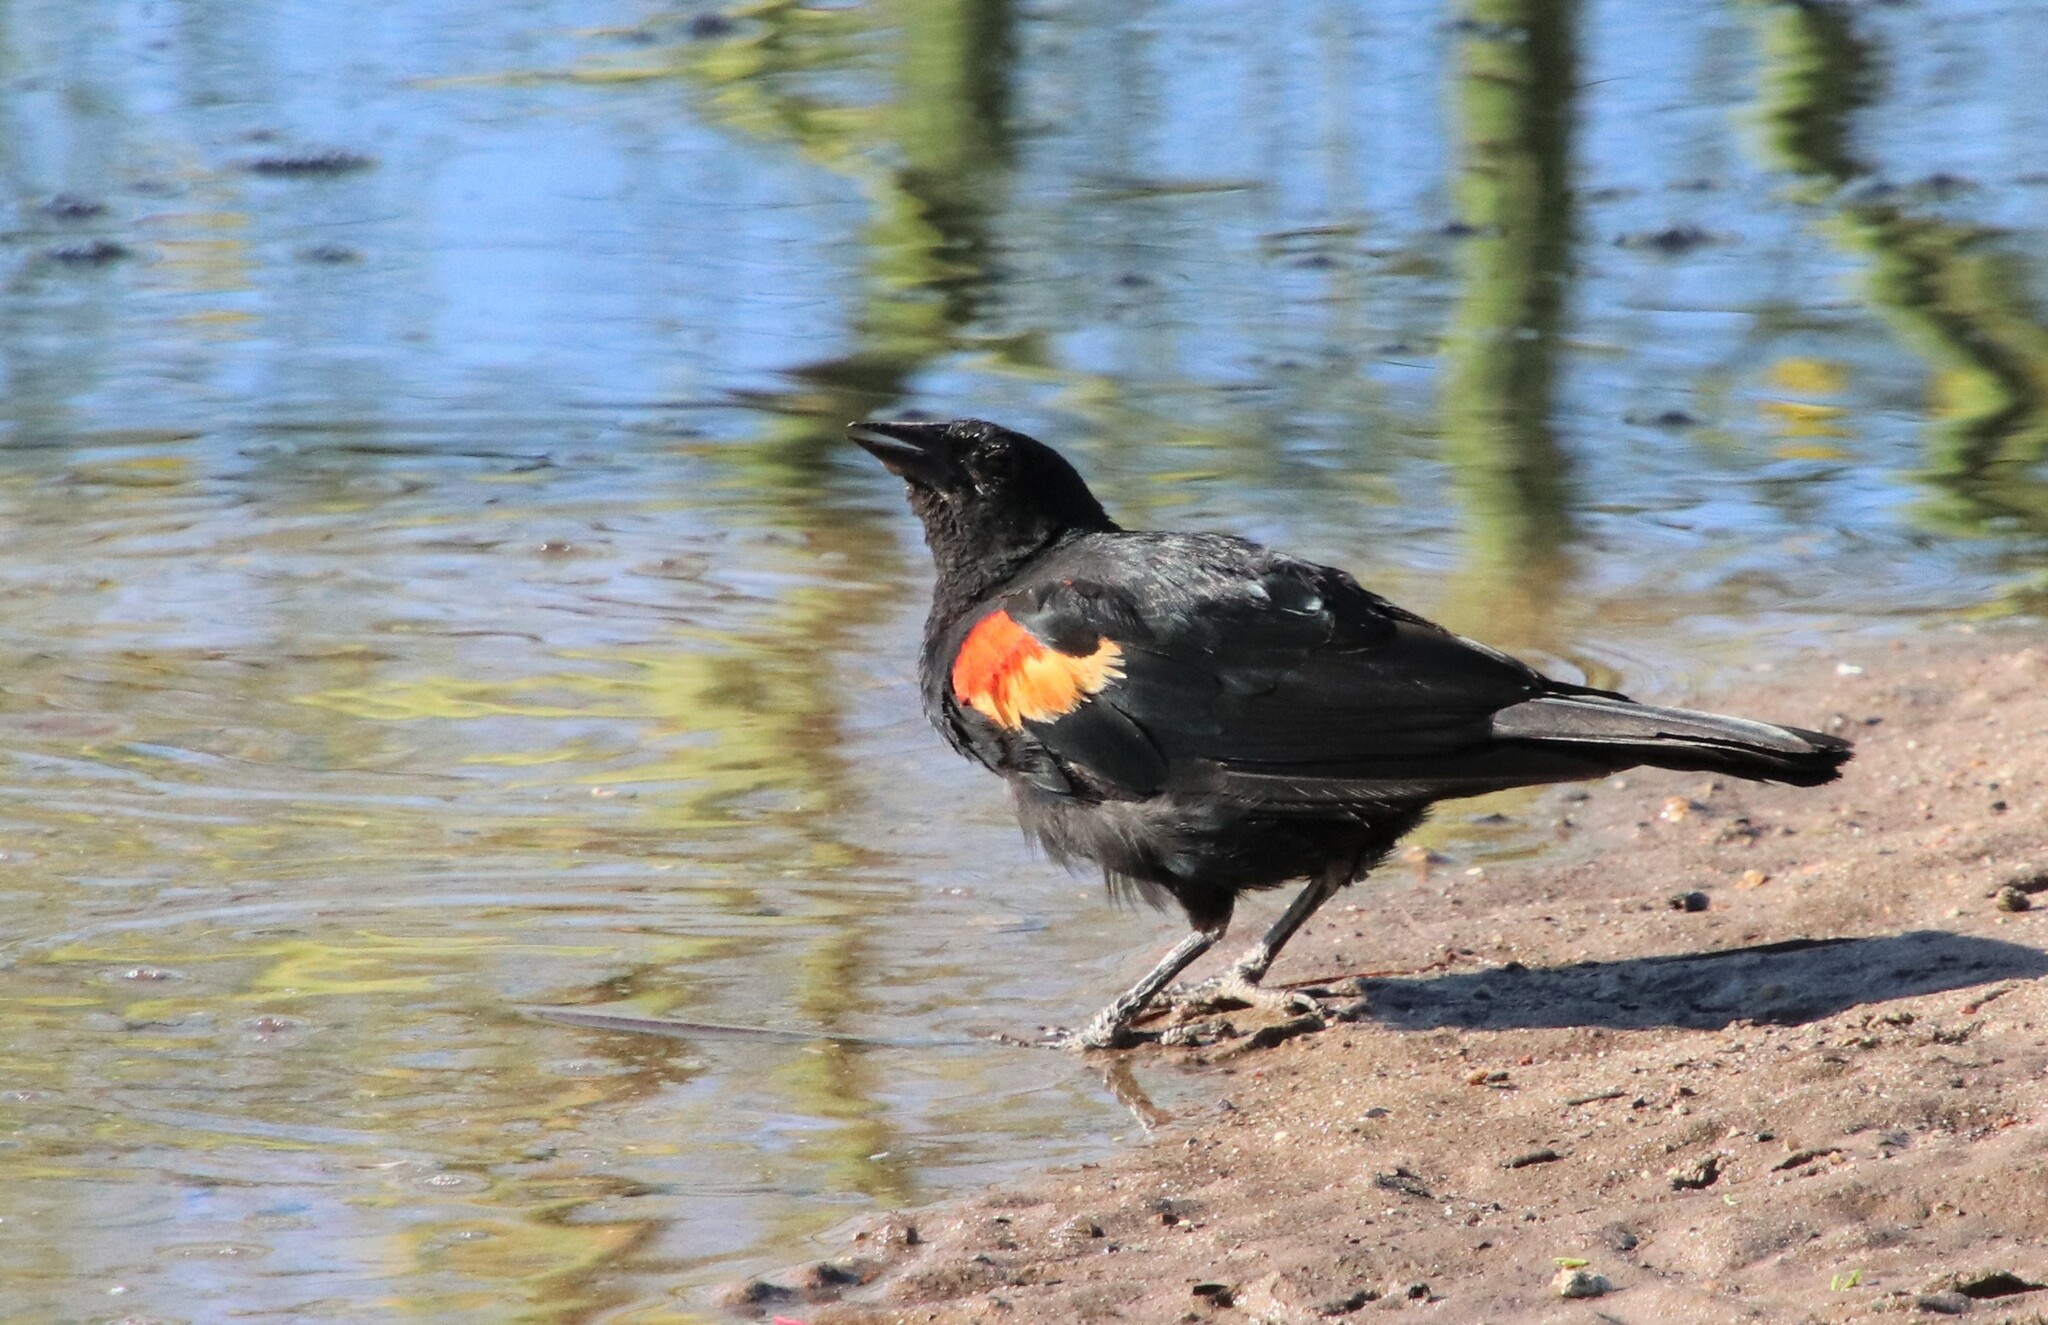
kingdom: Animalia
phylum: Chordata
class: Aves
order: Passeriformes
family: Icteridae
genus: Agelaius
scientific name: Agelaius phoeniceus
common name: Red-winged blackbird
